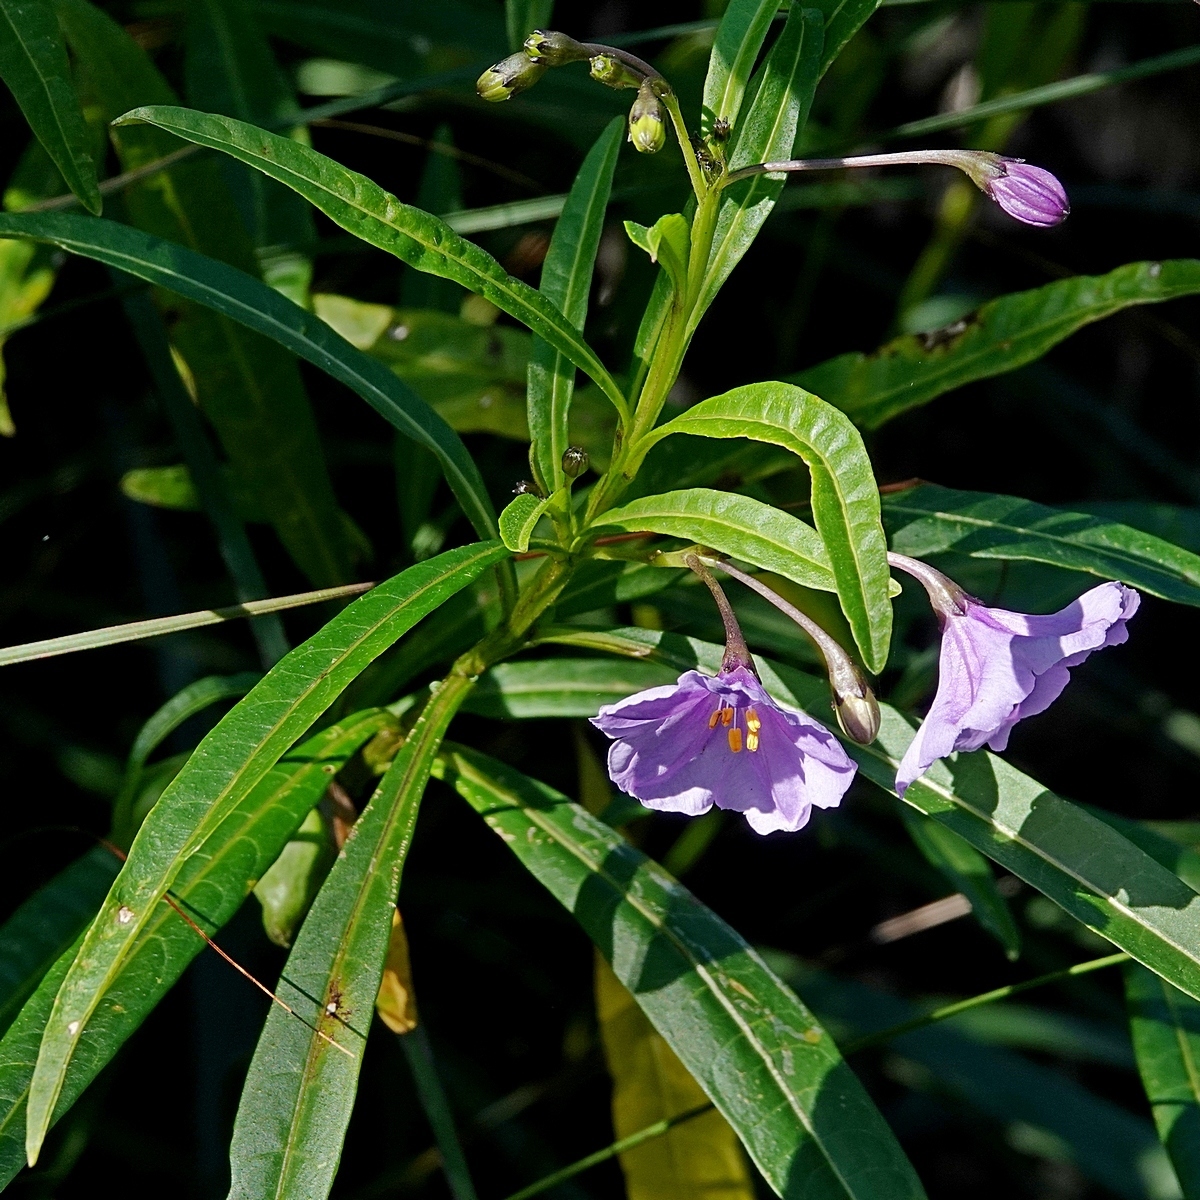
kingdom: Plantae
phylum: Tracheophyta
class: Magnoliopsida
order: Solanales
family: Solanaceae
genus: Solanum
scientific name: Solanum vescum
